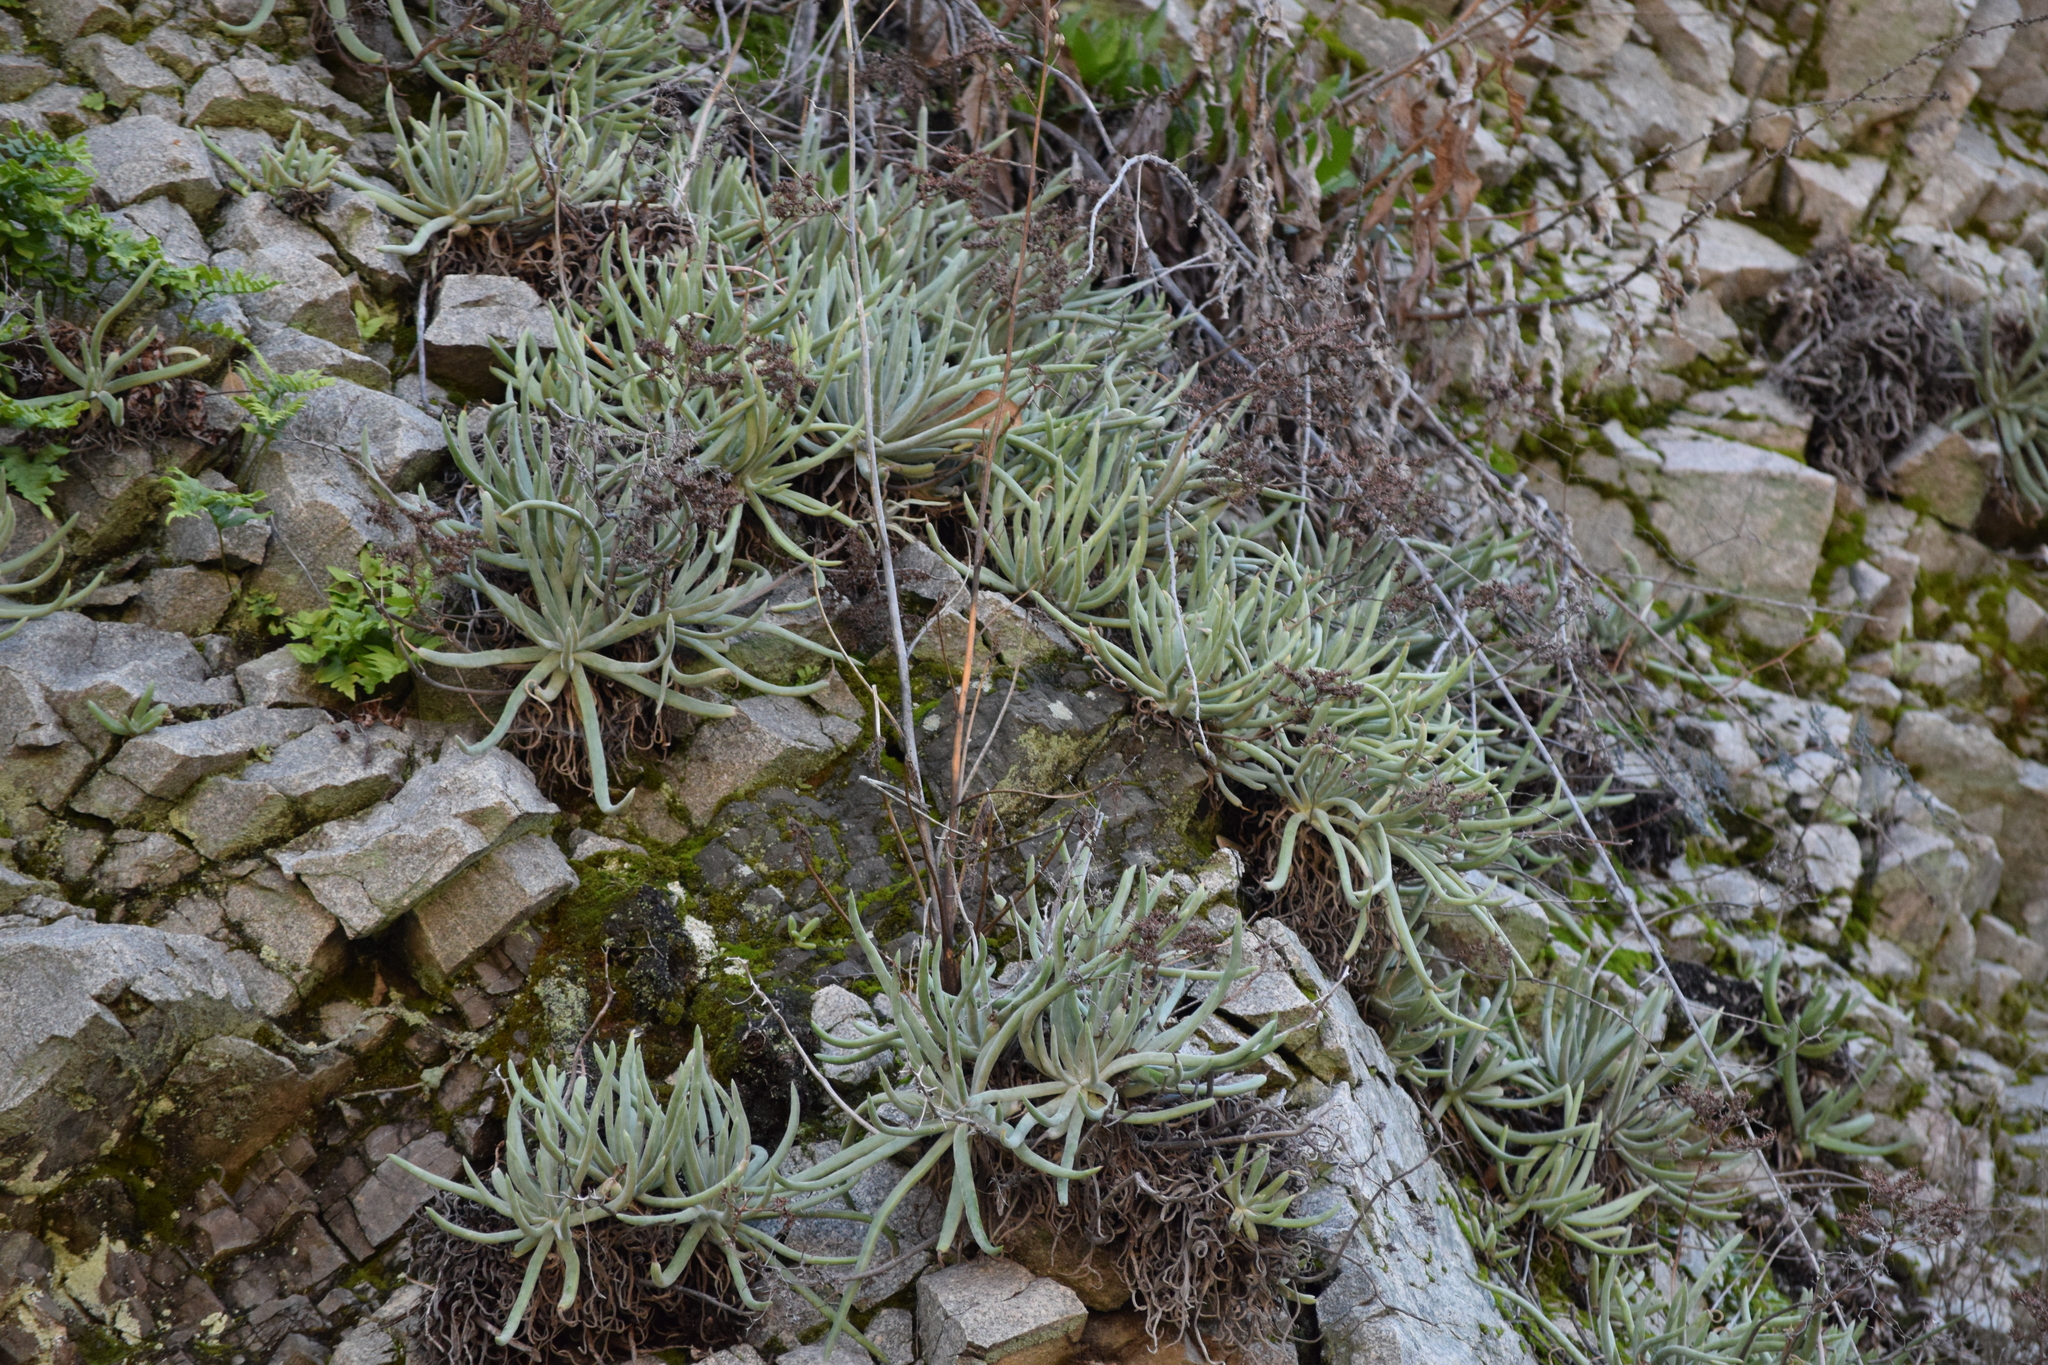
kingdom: Plantae
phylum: Tracheophyta
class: Magnoliopsida
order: Saxifragales
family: Crassulaceae
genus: Dudleya
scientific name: Dudleya densiflora
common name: San gabriel mountains dudleya
